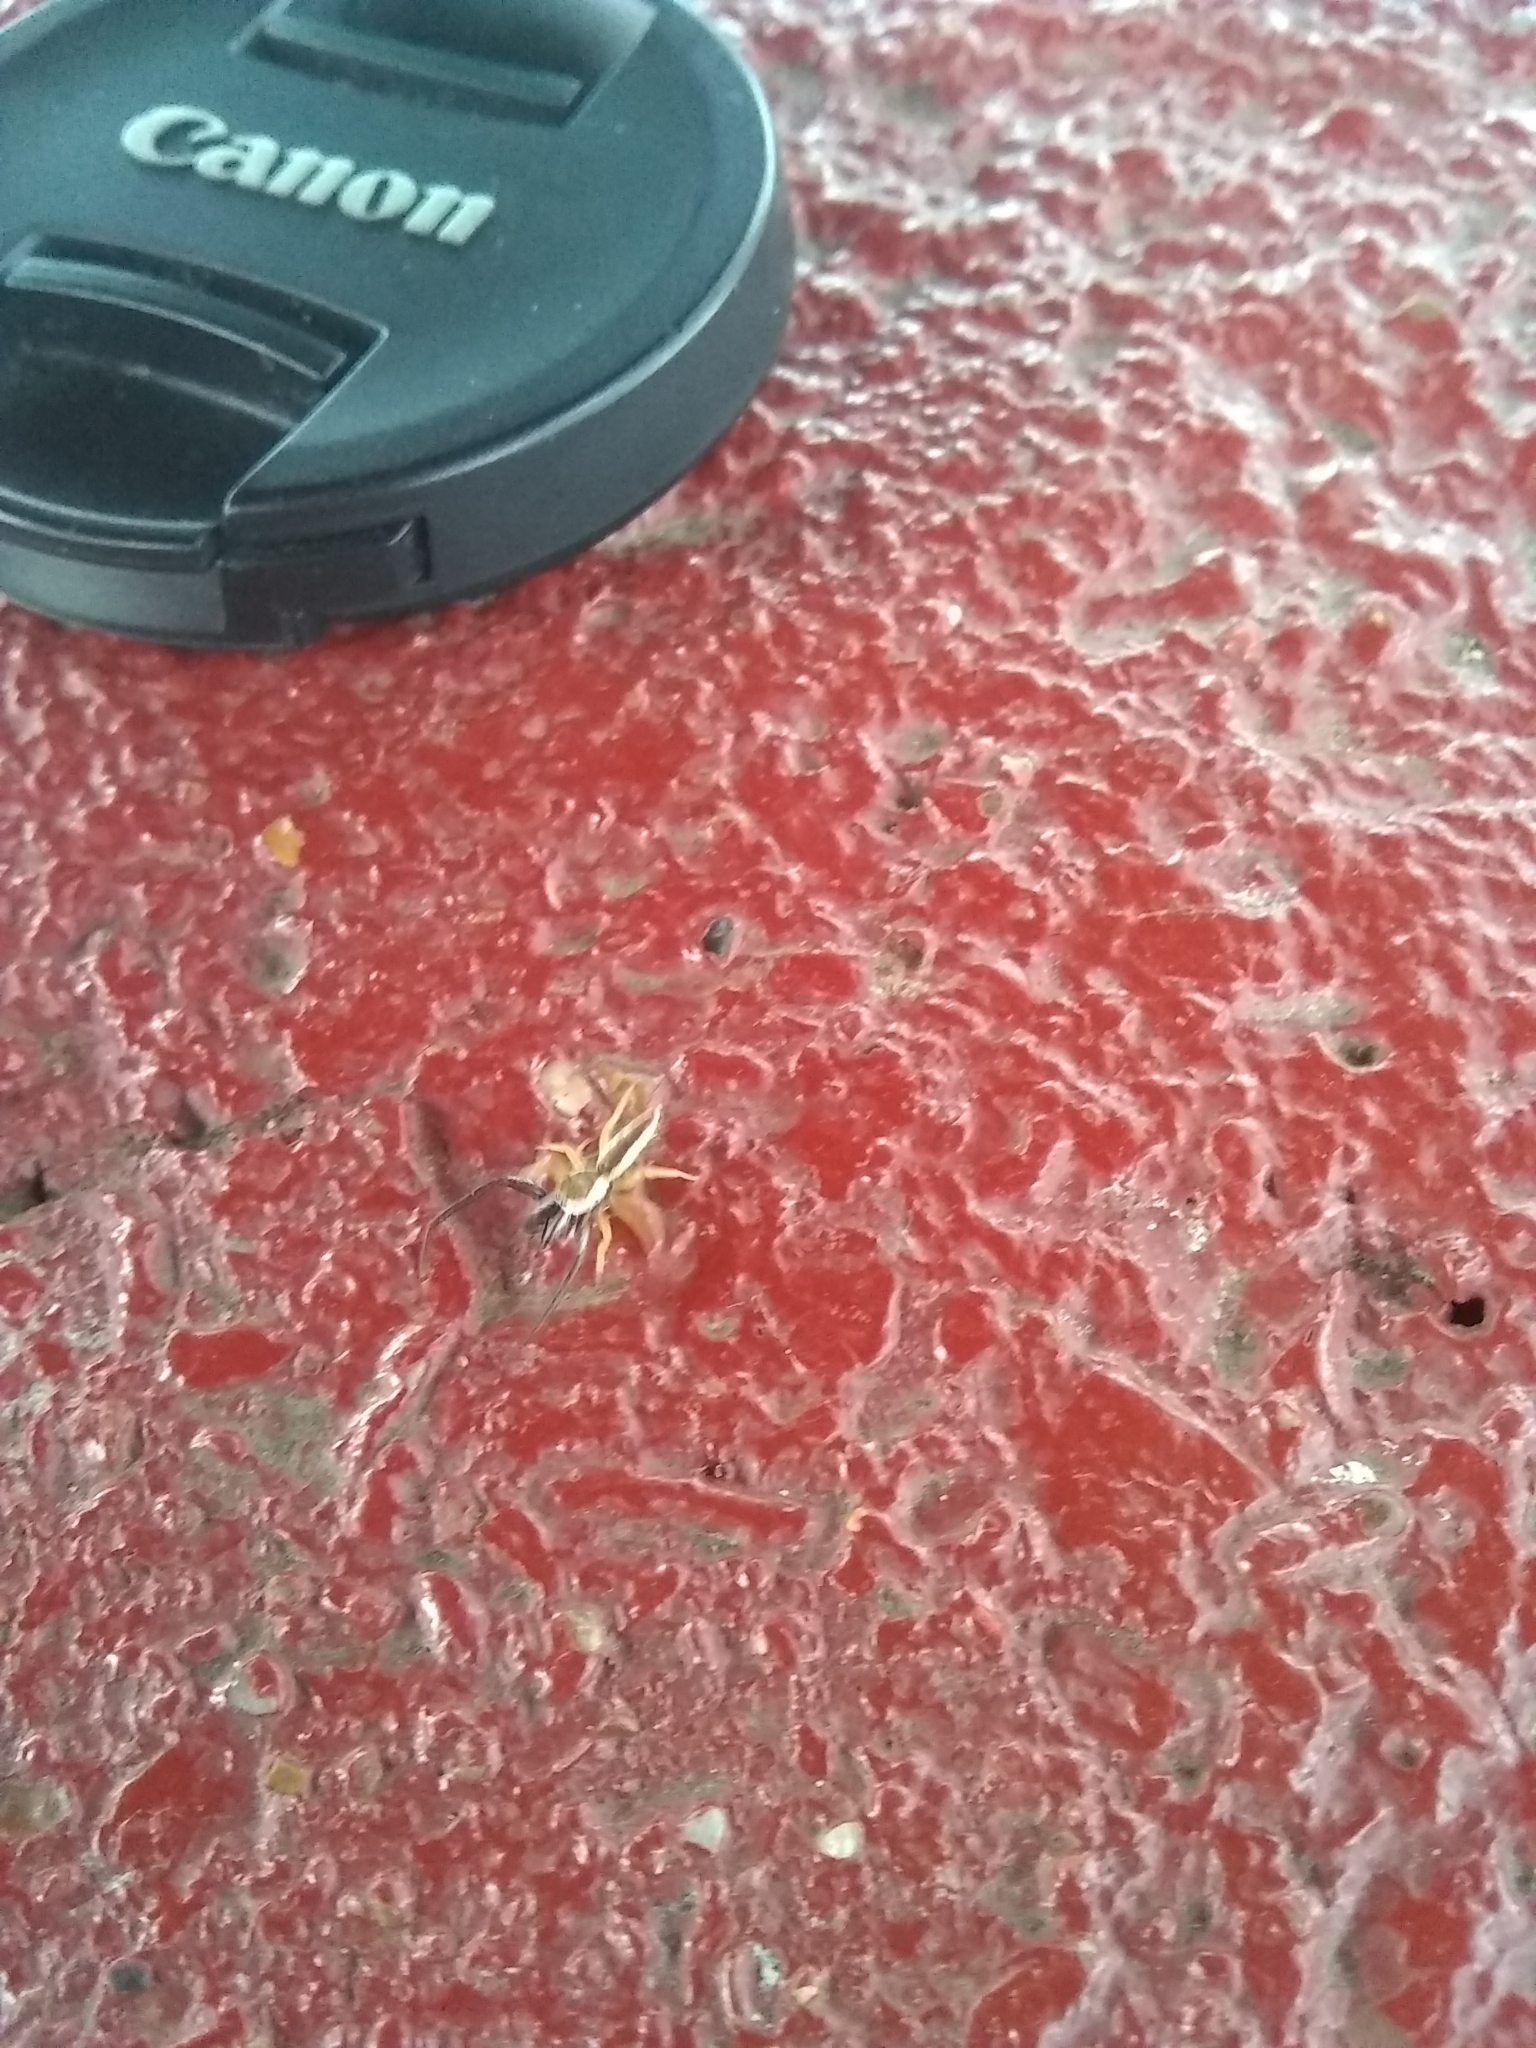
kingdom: Animalia
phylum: Arthropoda
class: Arachnida
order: Araneae
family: Salticidae
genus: Hentzia
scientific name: Hentzia palmarum
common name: Common hentz jumping spider
